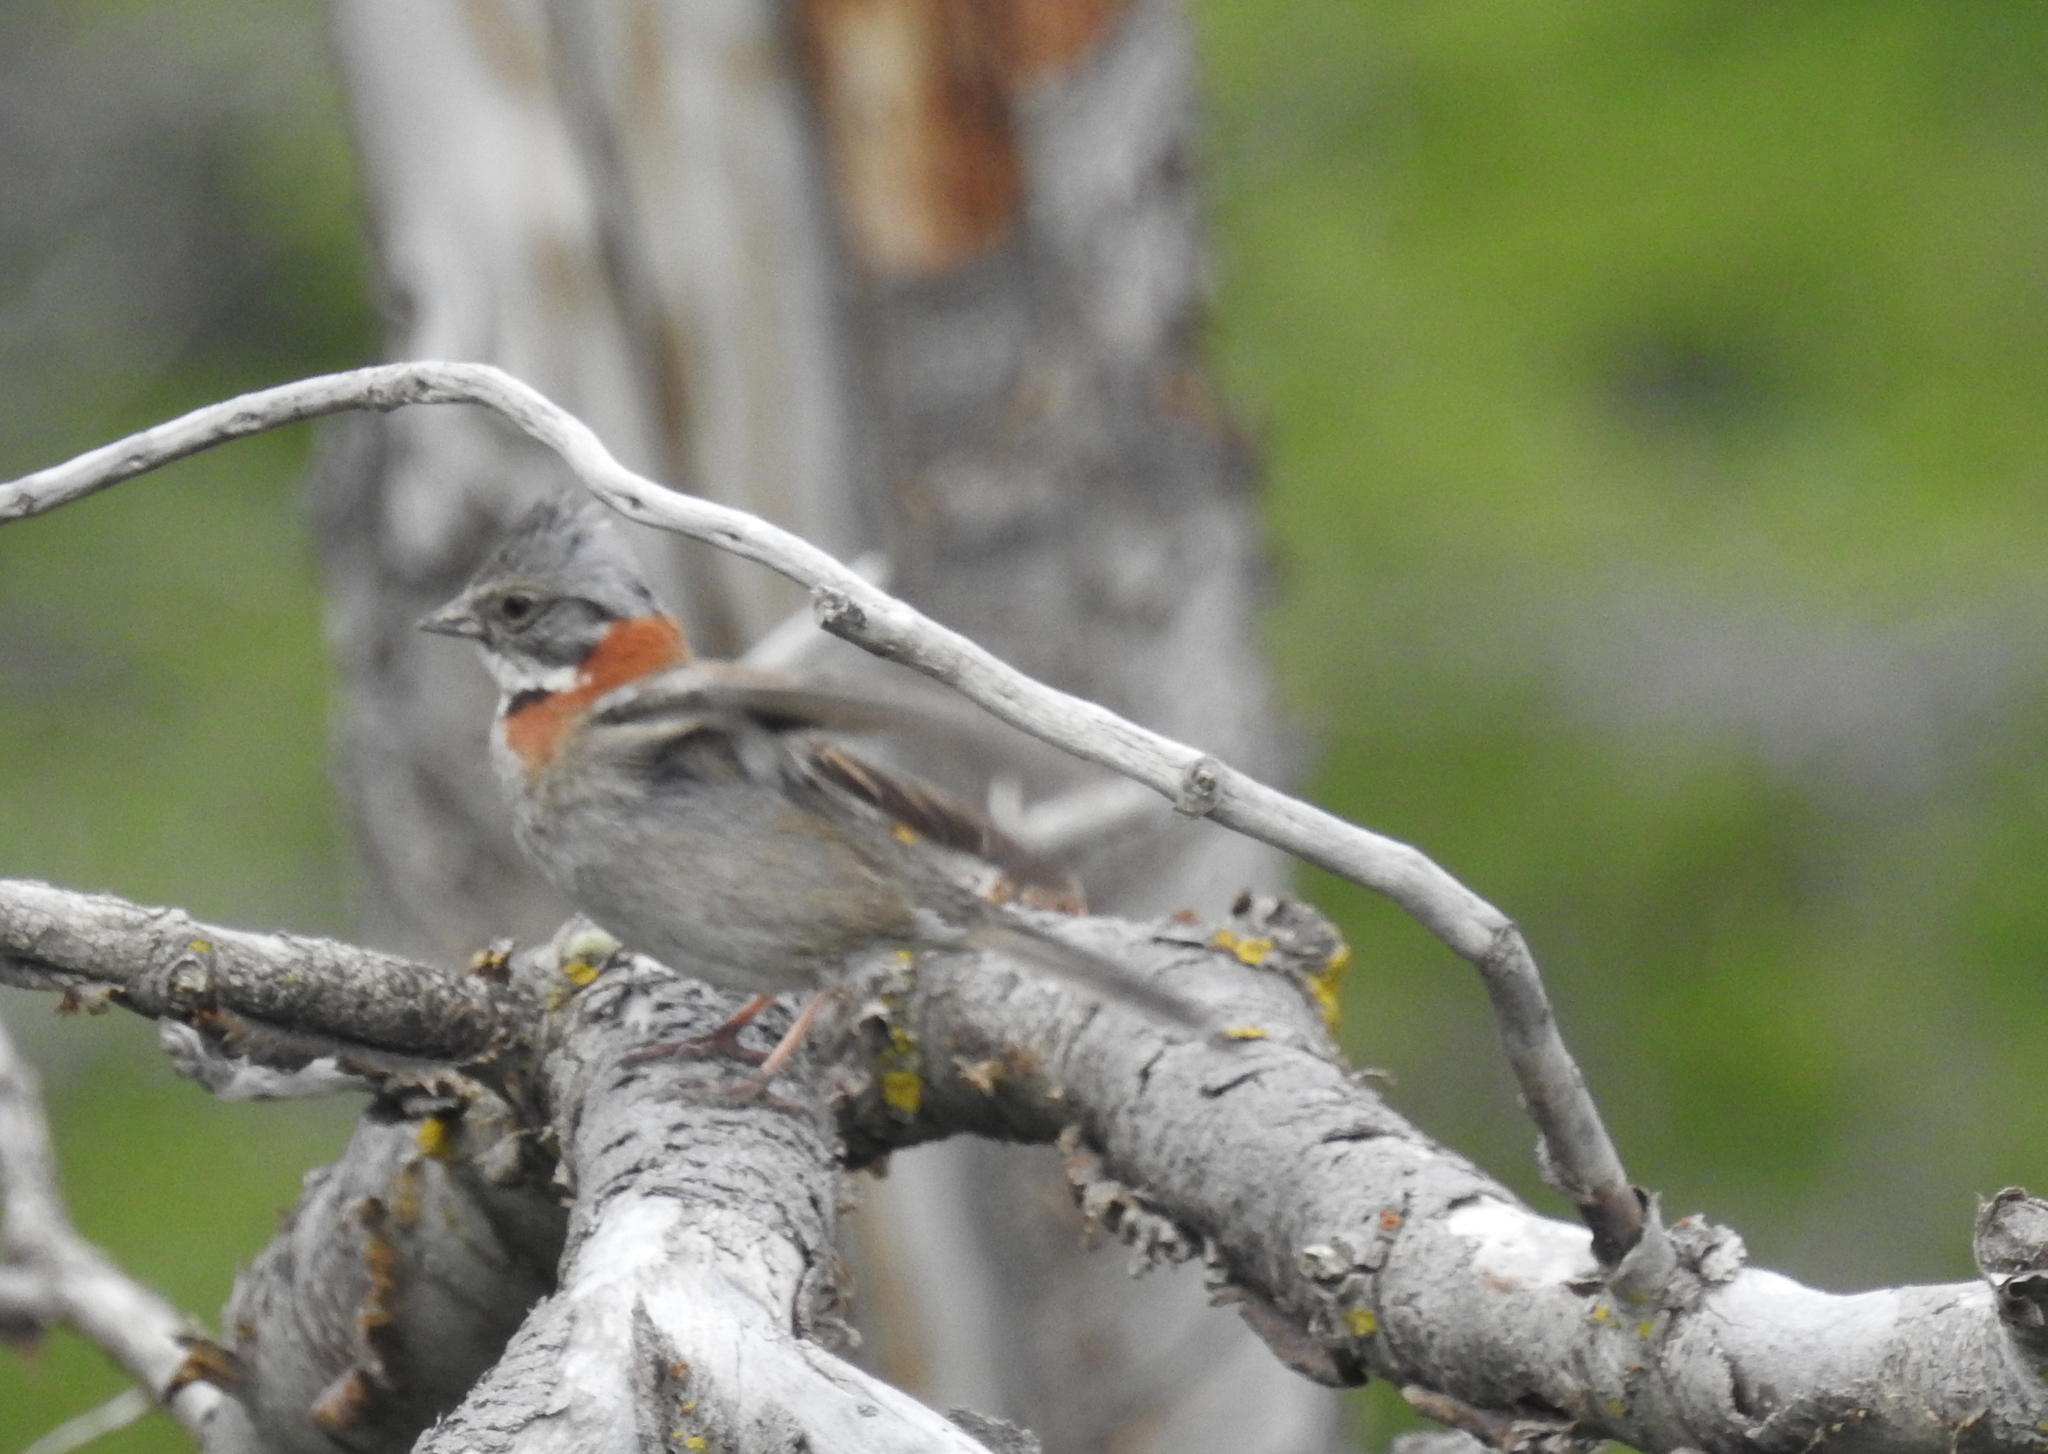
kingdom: Animalia
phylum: Chordata
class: Aves
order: Passeriformes
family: Passerellidae
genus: Zonotrichia
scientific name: Zonotrichia capensis
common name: Rufous-collared sparrow
